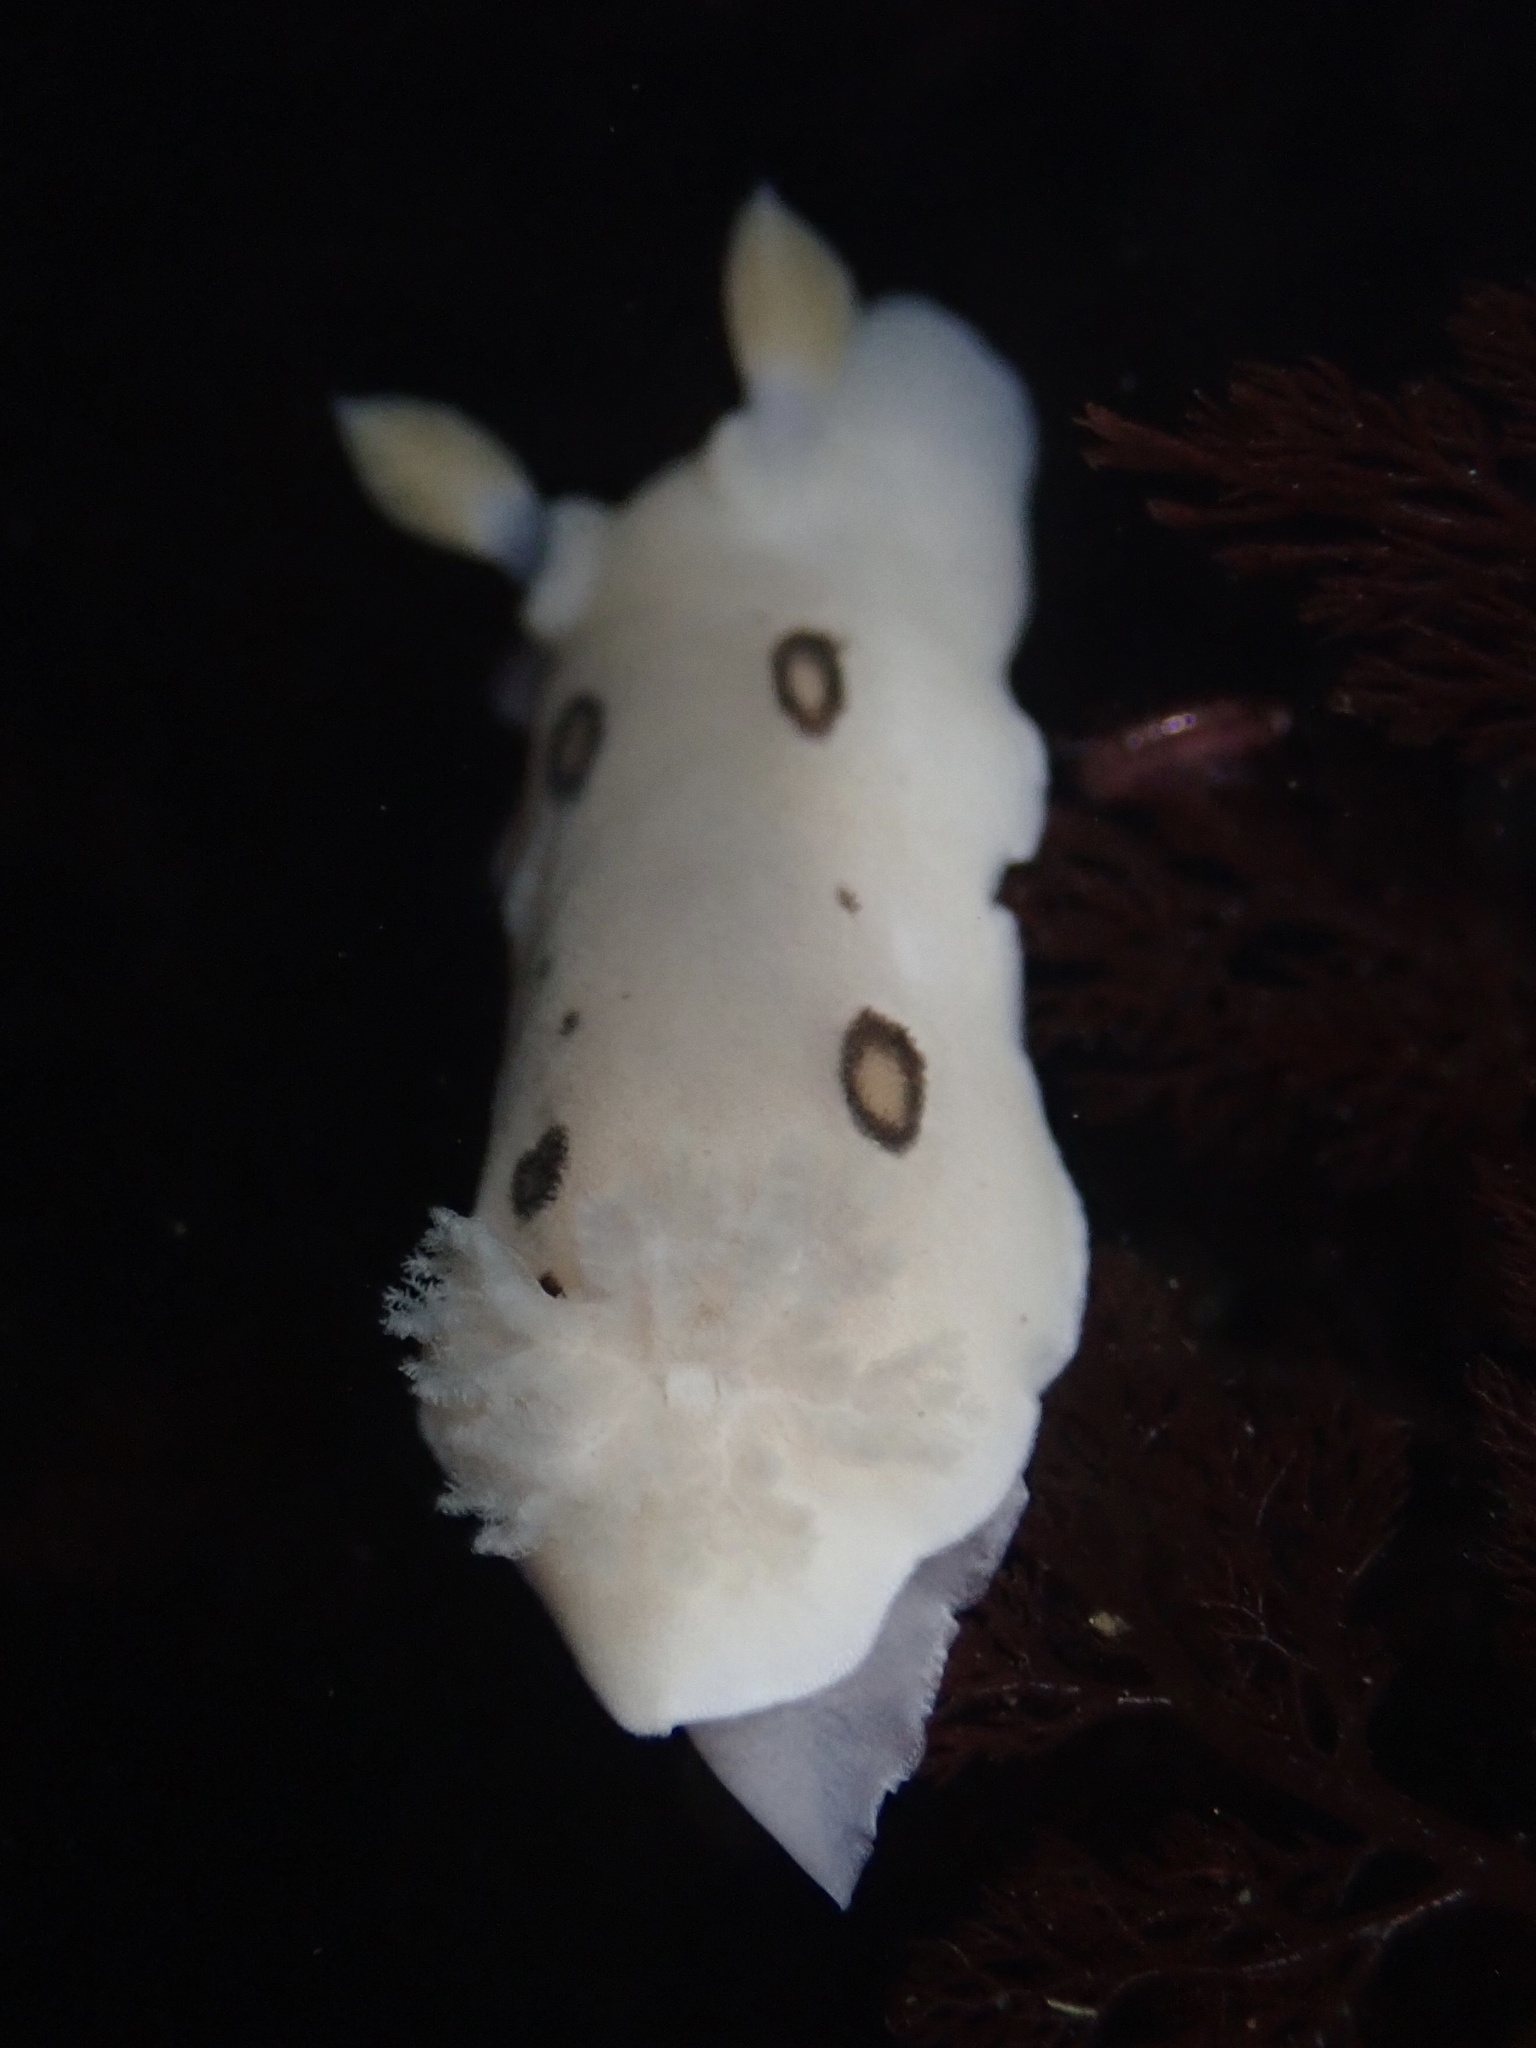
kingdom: Animalia
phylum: Mollusca
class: Gastropoda
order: Nudibranchia
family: Discodorididae
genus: Diaulula
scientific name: Diaulula sandiegensis
